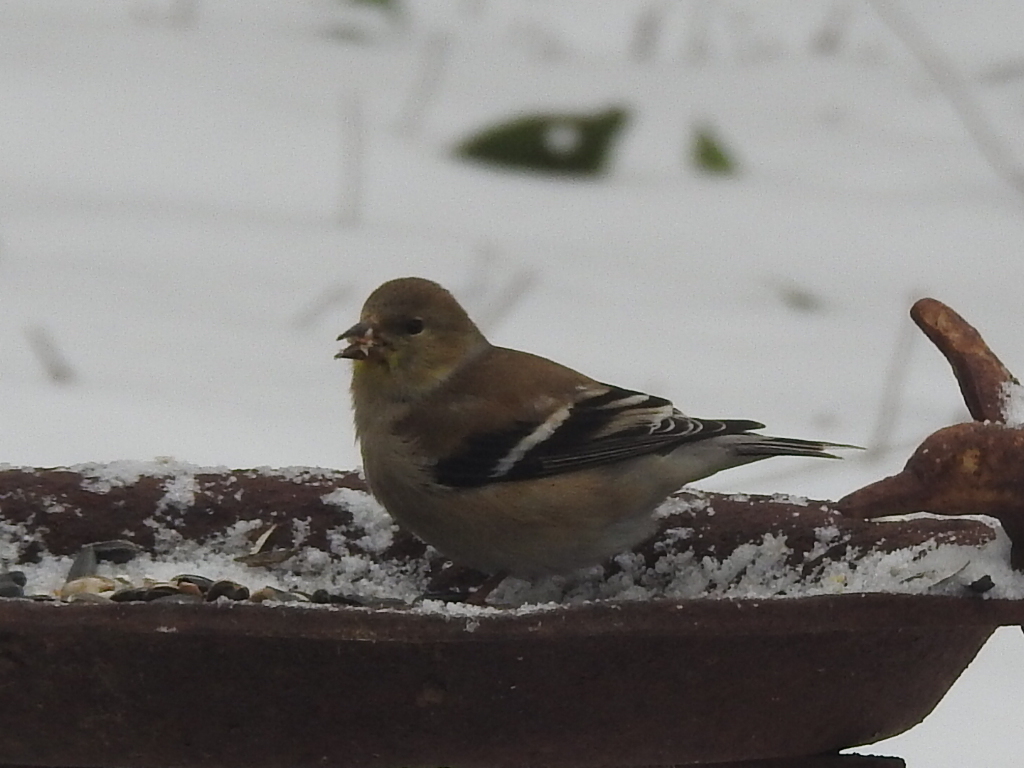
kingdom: Animalia
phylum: Chordata
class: Aves
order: Passeriformes
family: Fringillidae
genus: Spinus
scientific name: Spinus tristis
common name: American goldfinch
